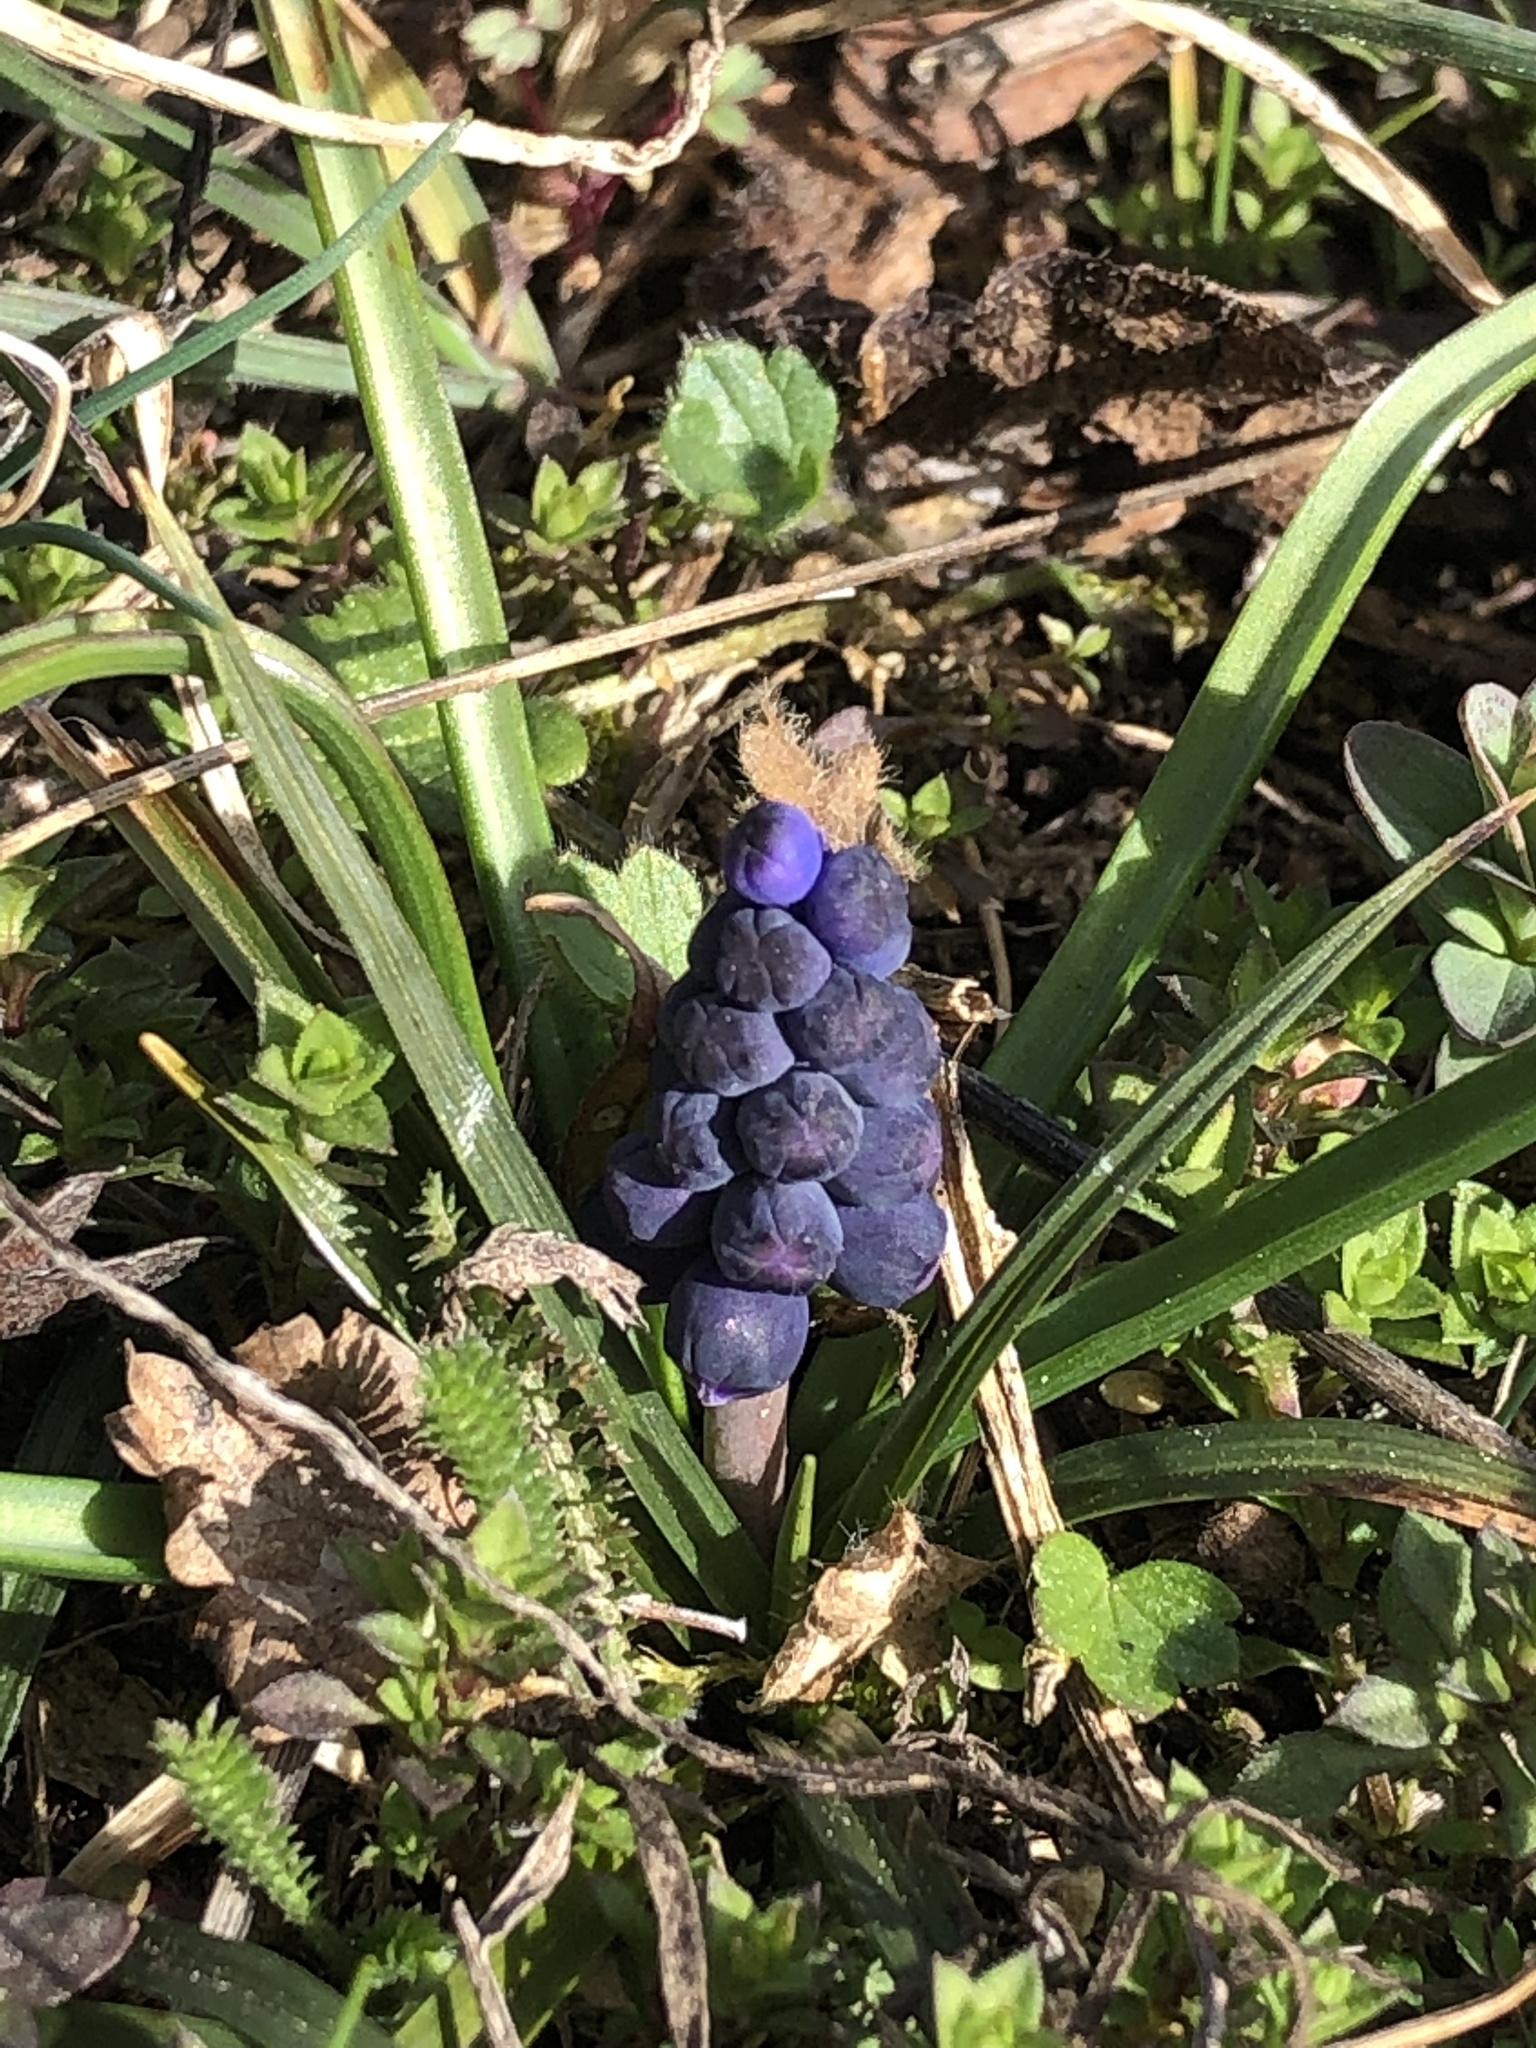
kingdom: Plantae
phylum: Tracheophyta
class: Liliopsida
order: Asparagales
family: Asparagaceae
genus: Muscari
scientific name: Muscari neglectum
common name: Grape-hyacinth
